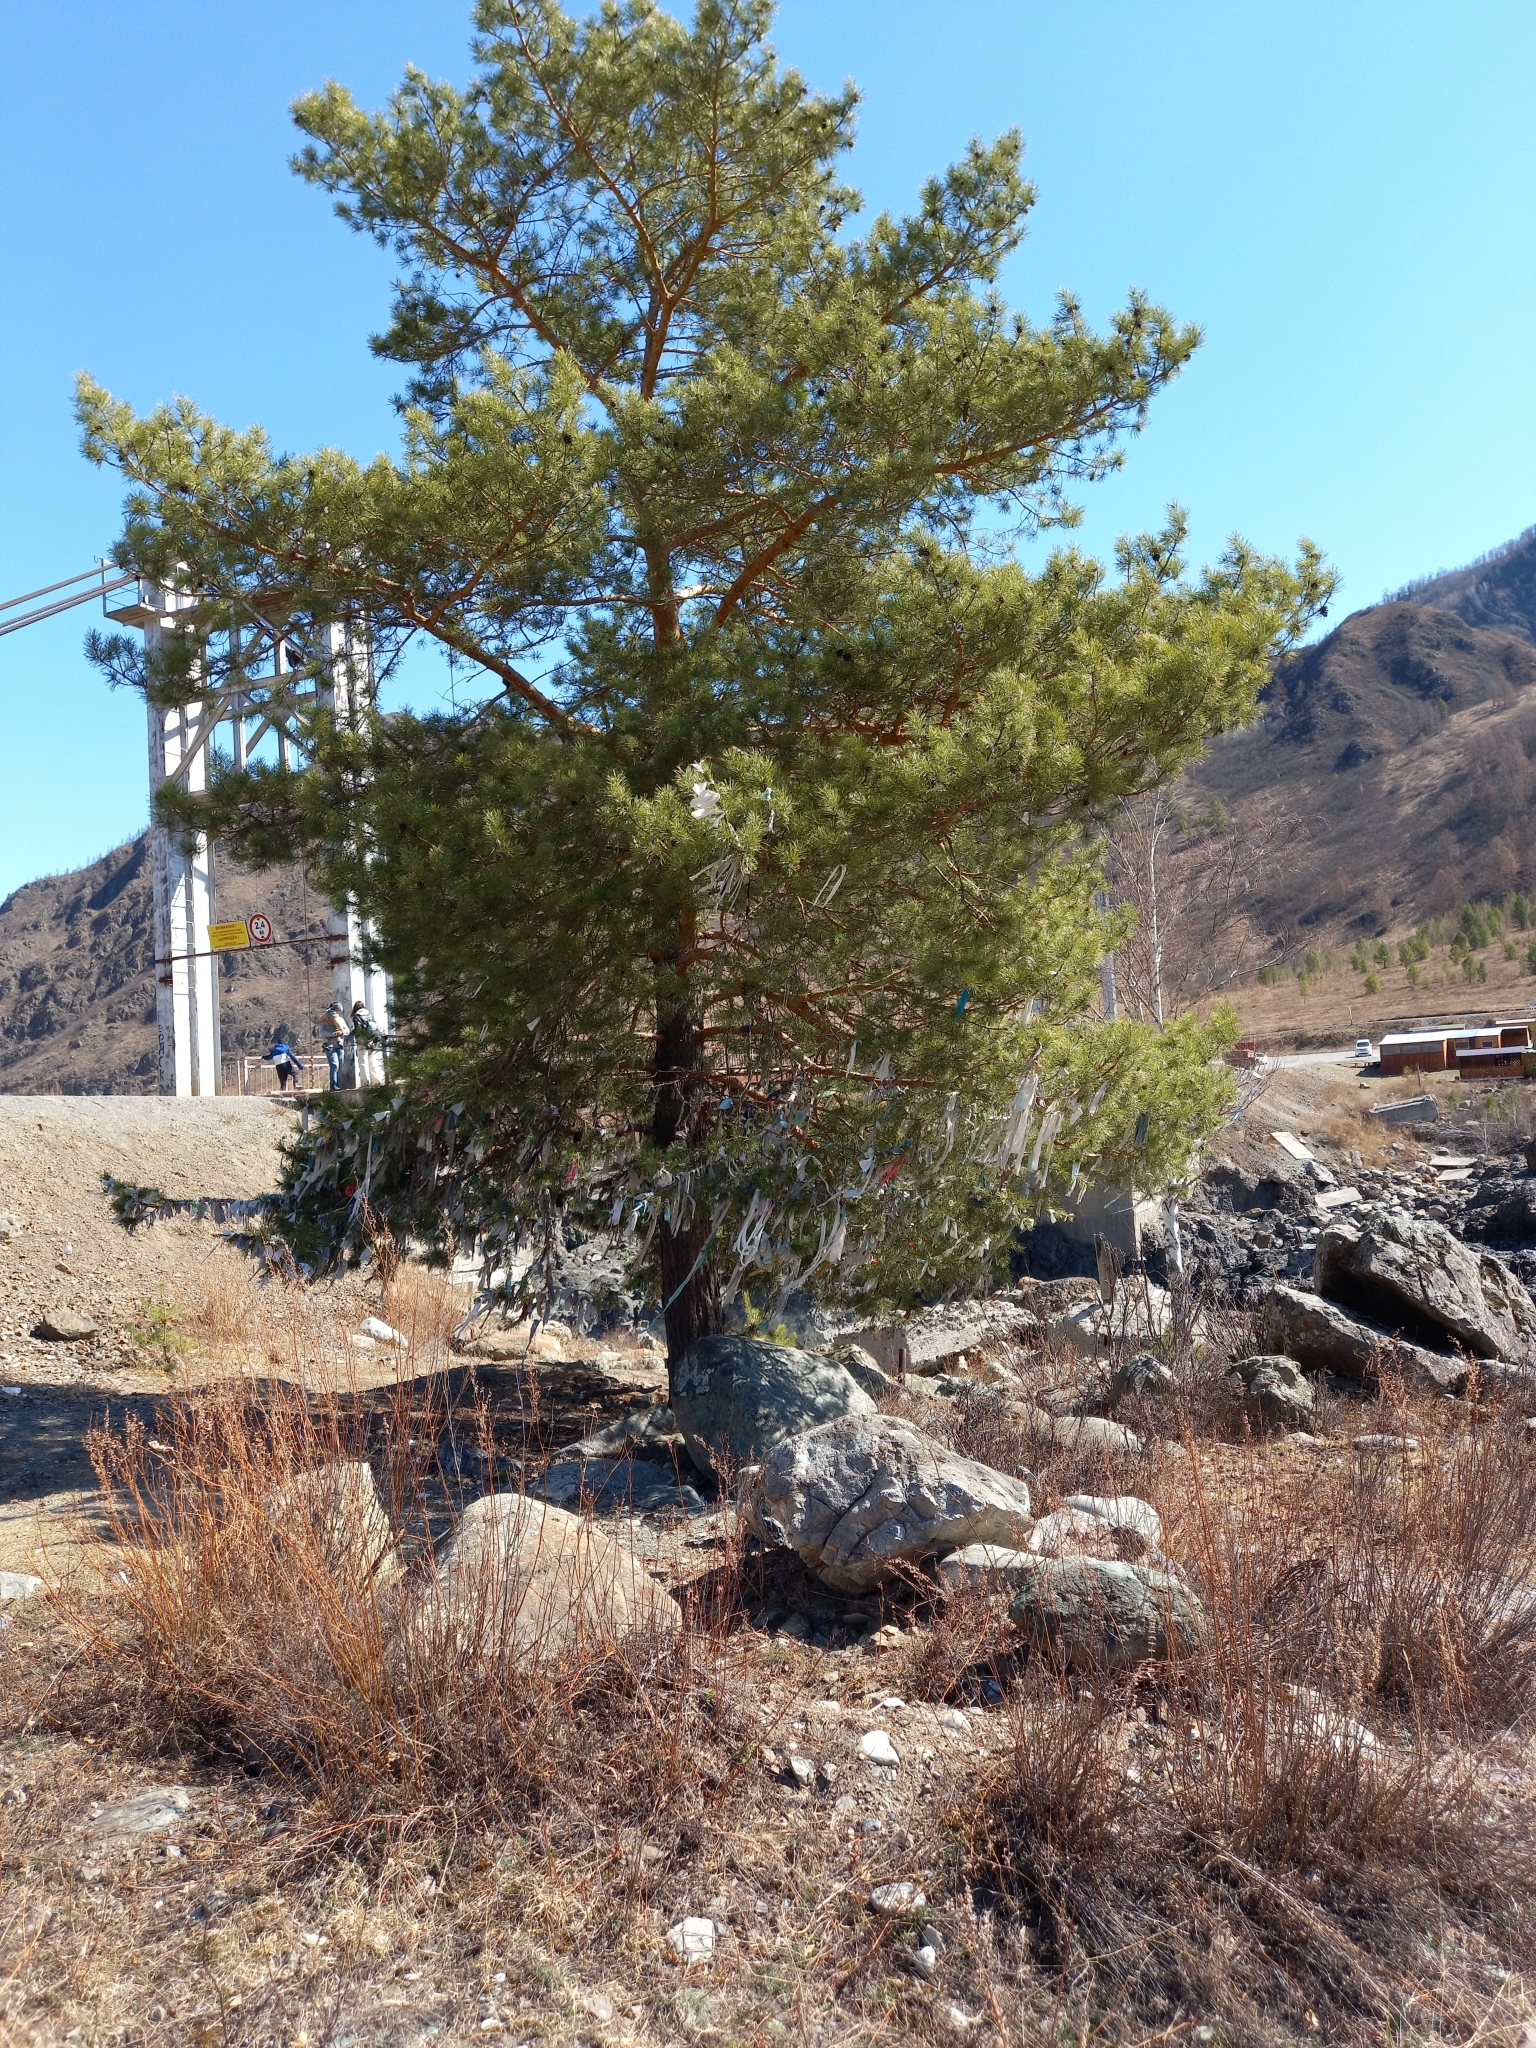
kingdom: Plantae
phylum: Tracheophyta
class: Pinopsida
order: Pinales
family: Pinaceae
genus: Pinus
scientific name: Pinus sylvestris
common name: Scots pine
